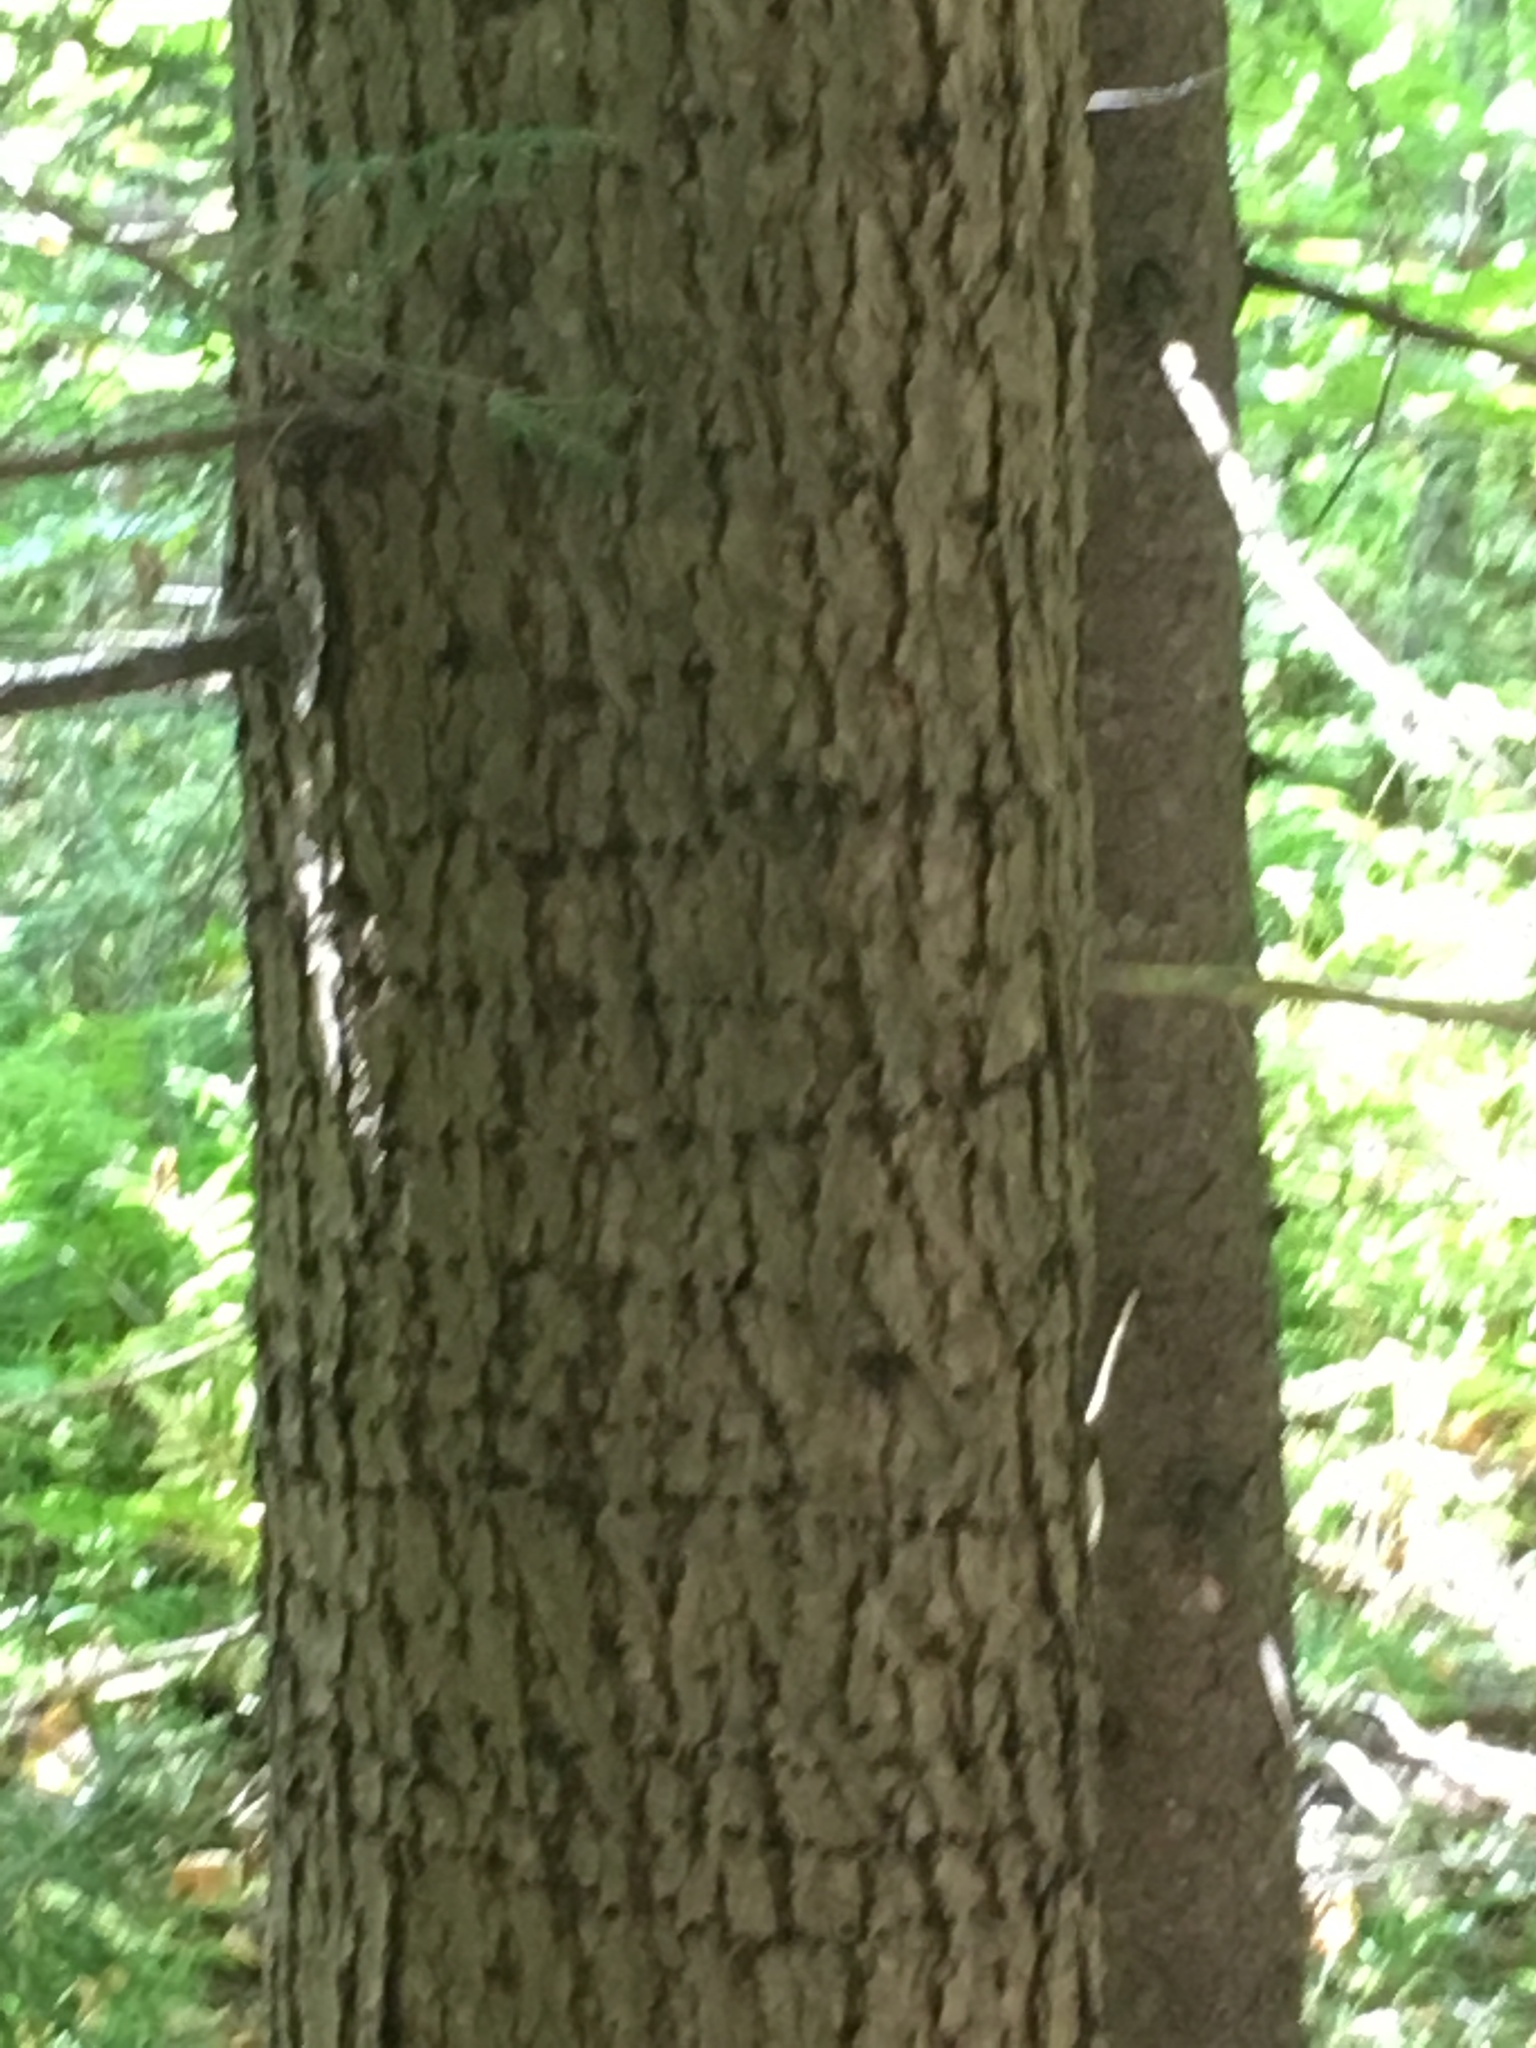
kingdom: Animalia
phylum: Chordata
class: Aves
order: Piciformes
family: Picidae
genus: Sphyrapicus
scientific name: Sphyrapicus varius
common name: Yellow-bellied sapsucker
